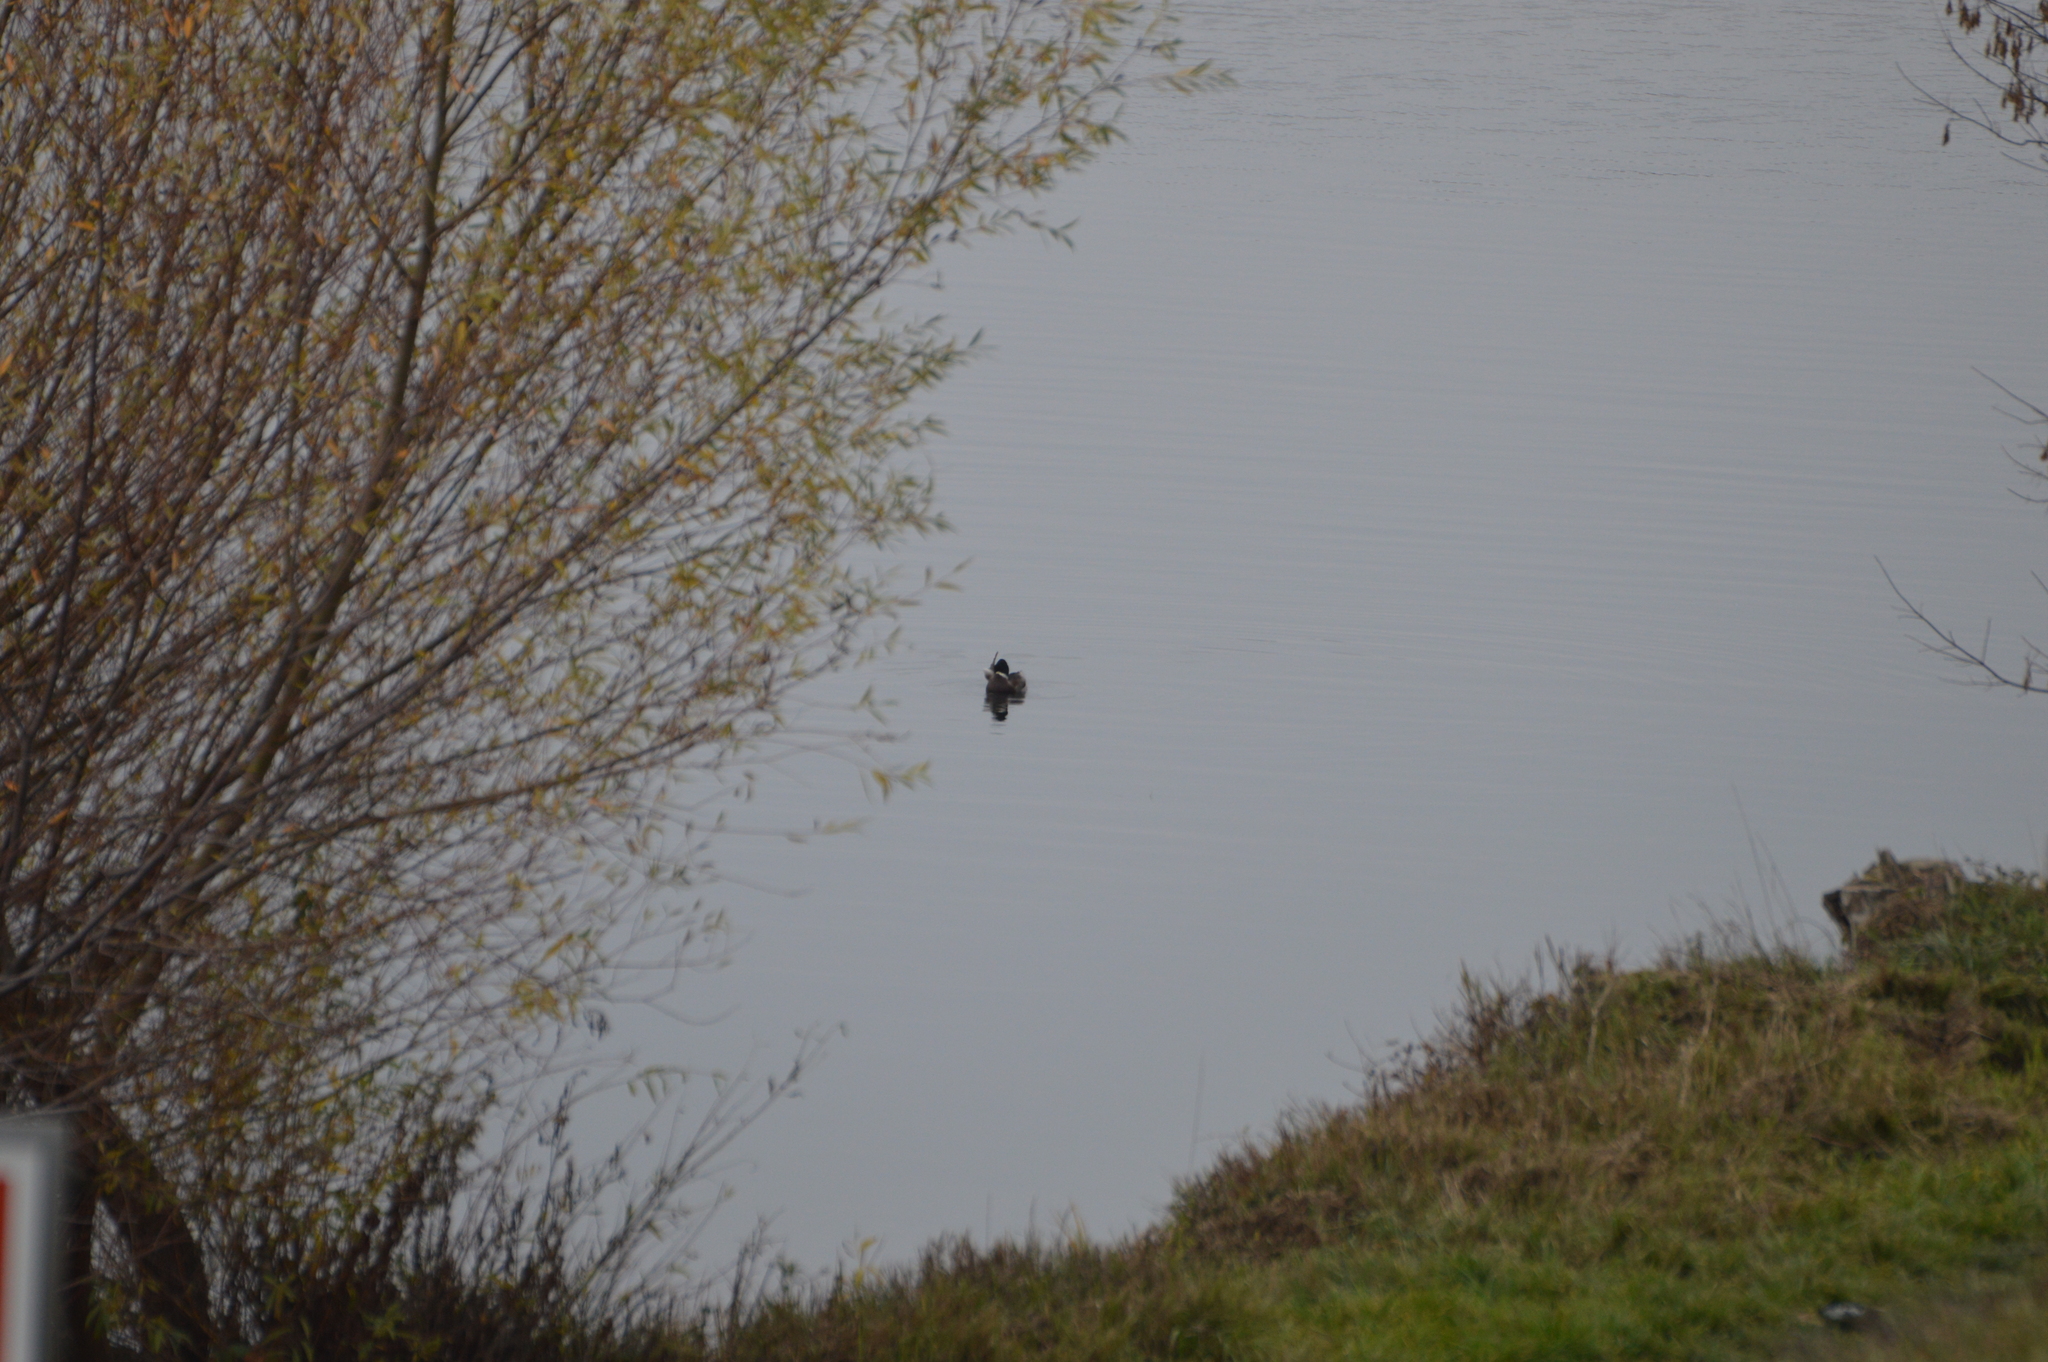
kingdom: Animalia
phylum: Chordata
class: Aves
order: Anseriformes
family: Anatidae
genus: Anas
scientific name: Anas platyrhynchos
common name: Mallard
